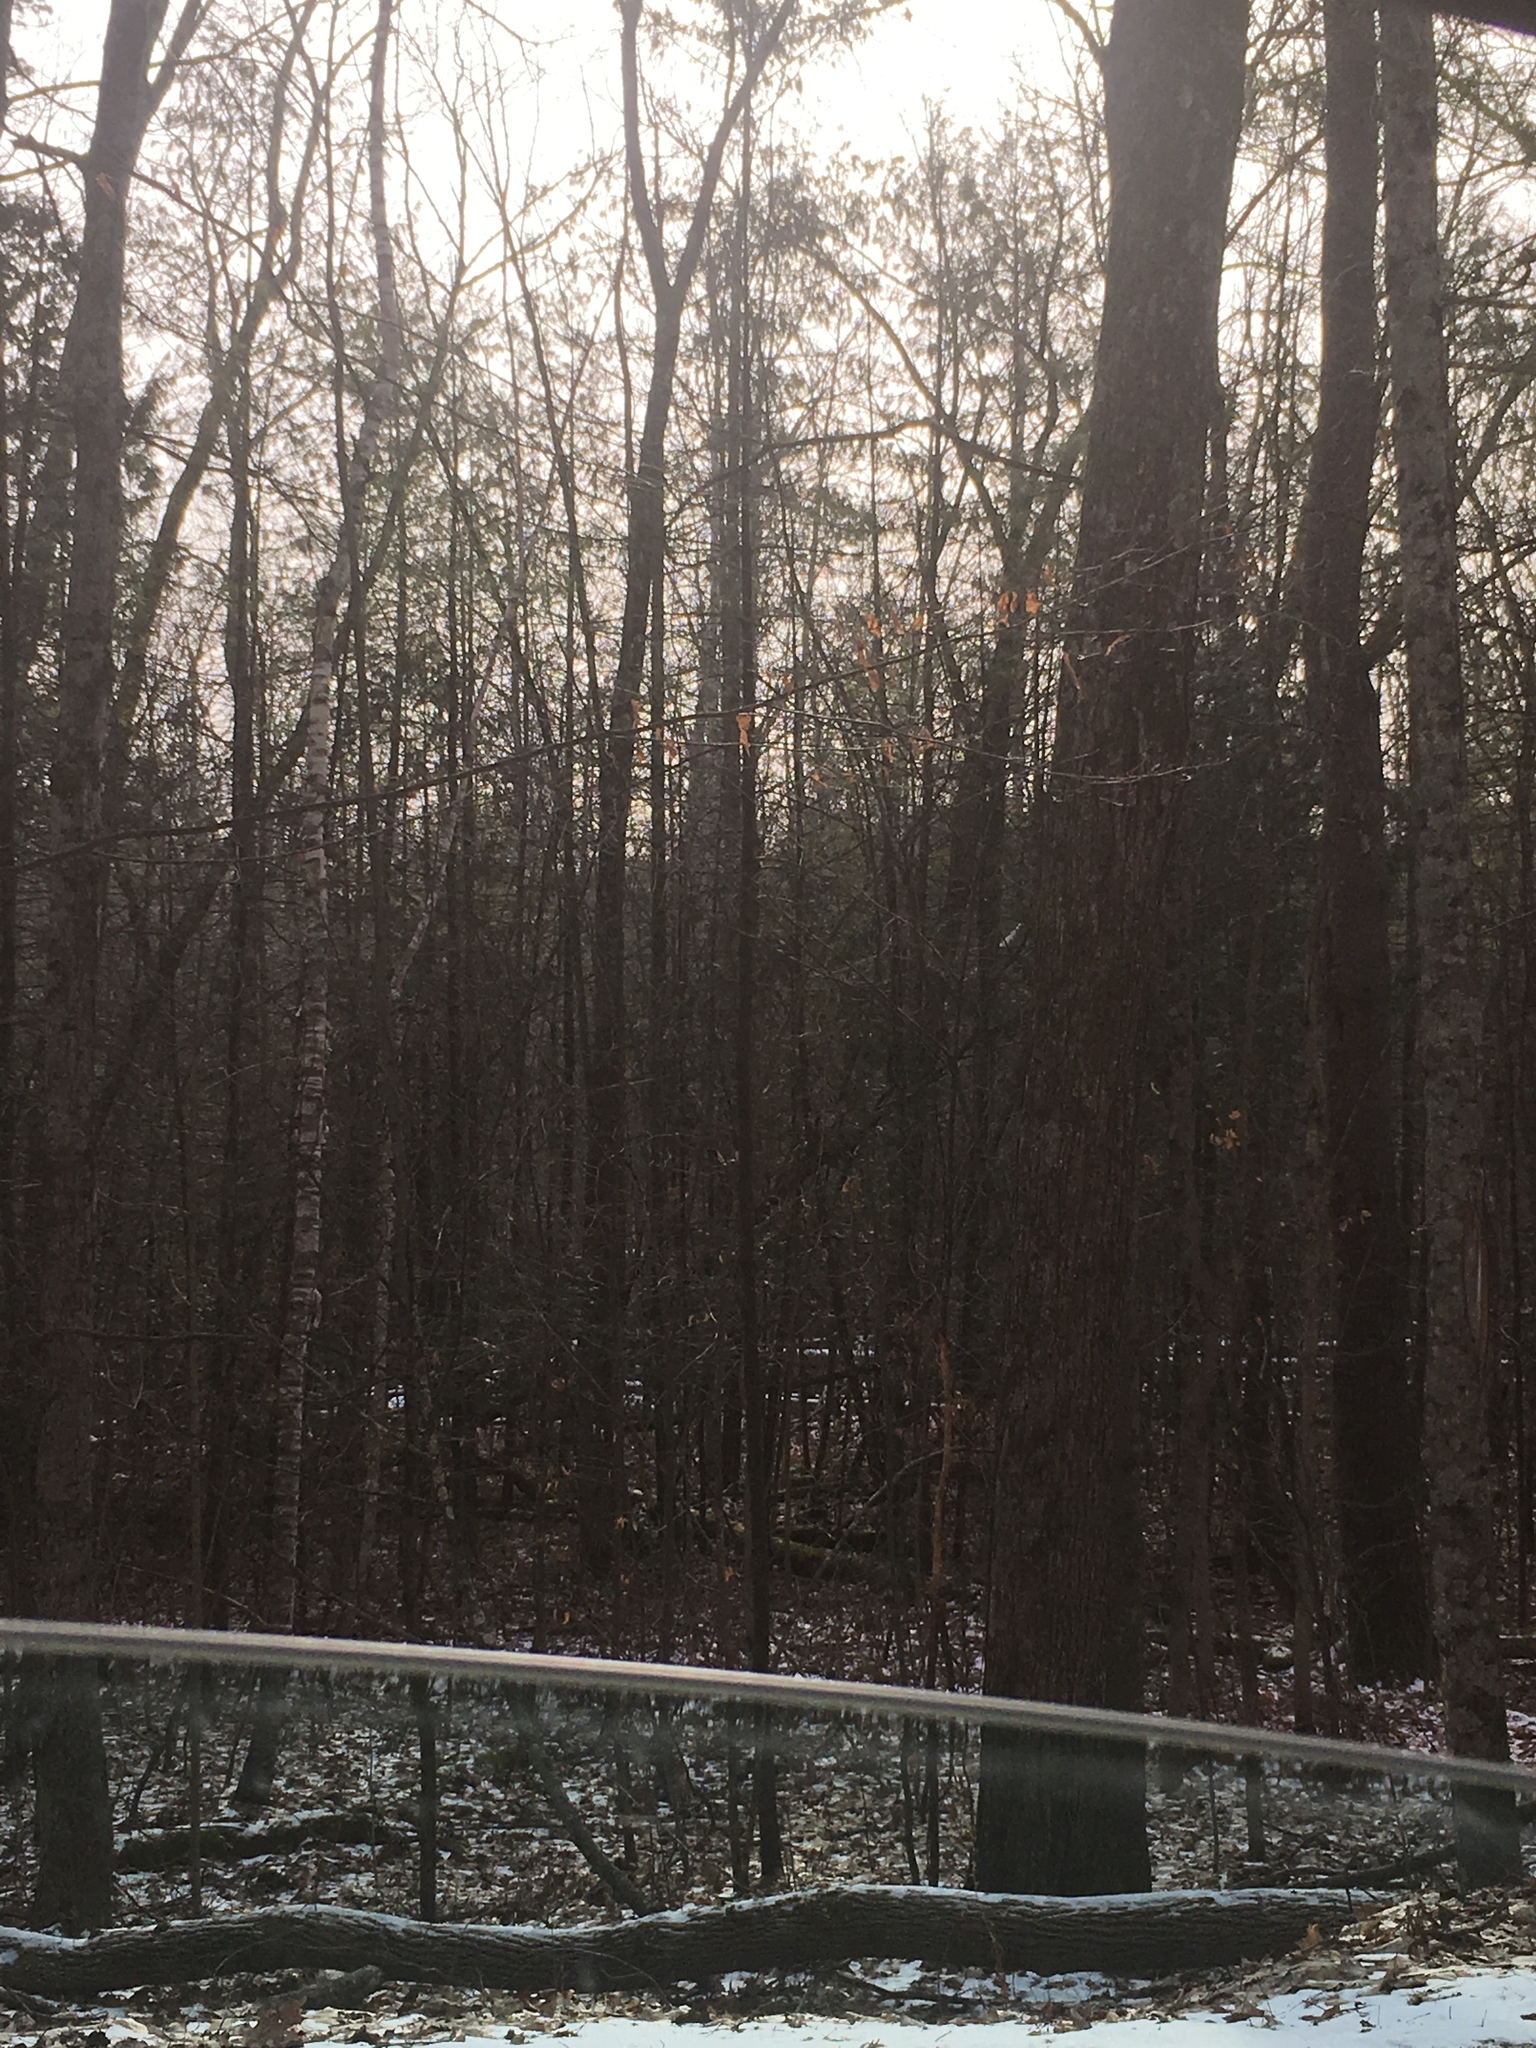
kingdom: Plantae
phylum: Tracheophyta
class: Pinopsida
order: Pinales
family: Pinaceae
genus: Pinus
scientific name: Pinus strobus
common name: Weymouth pine
